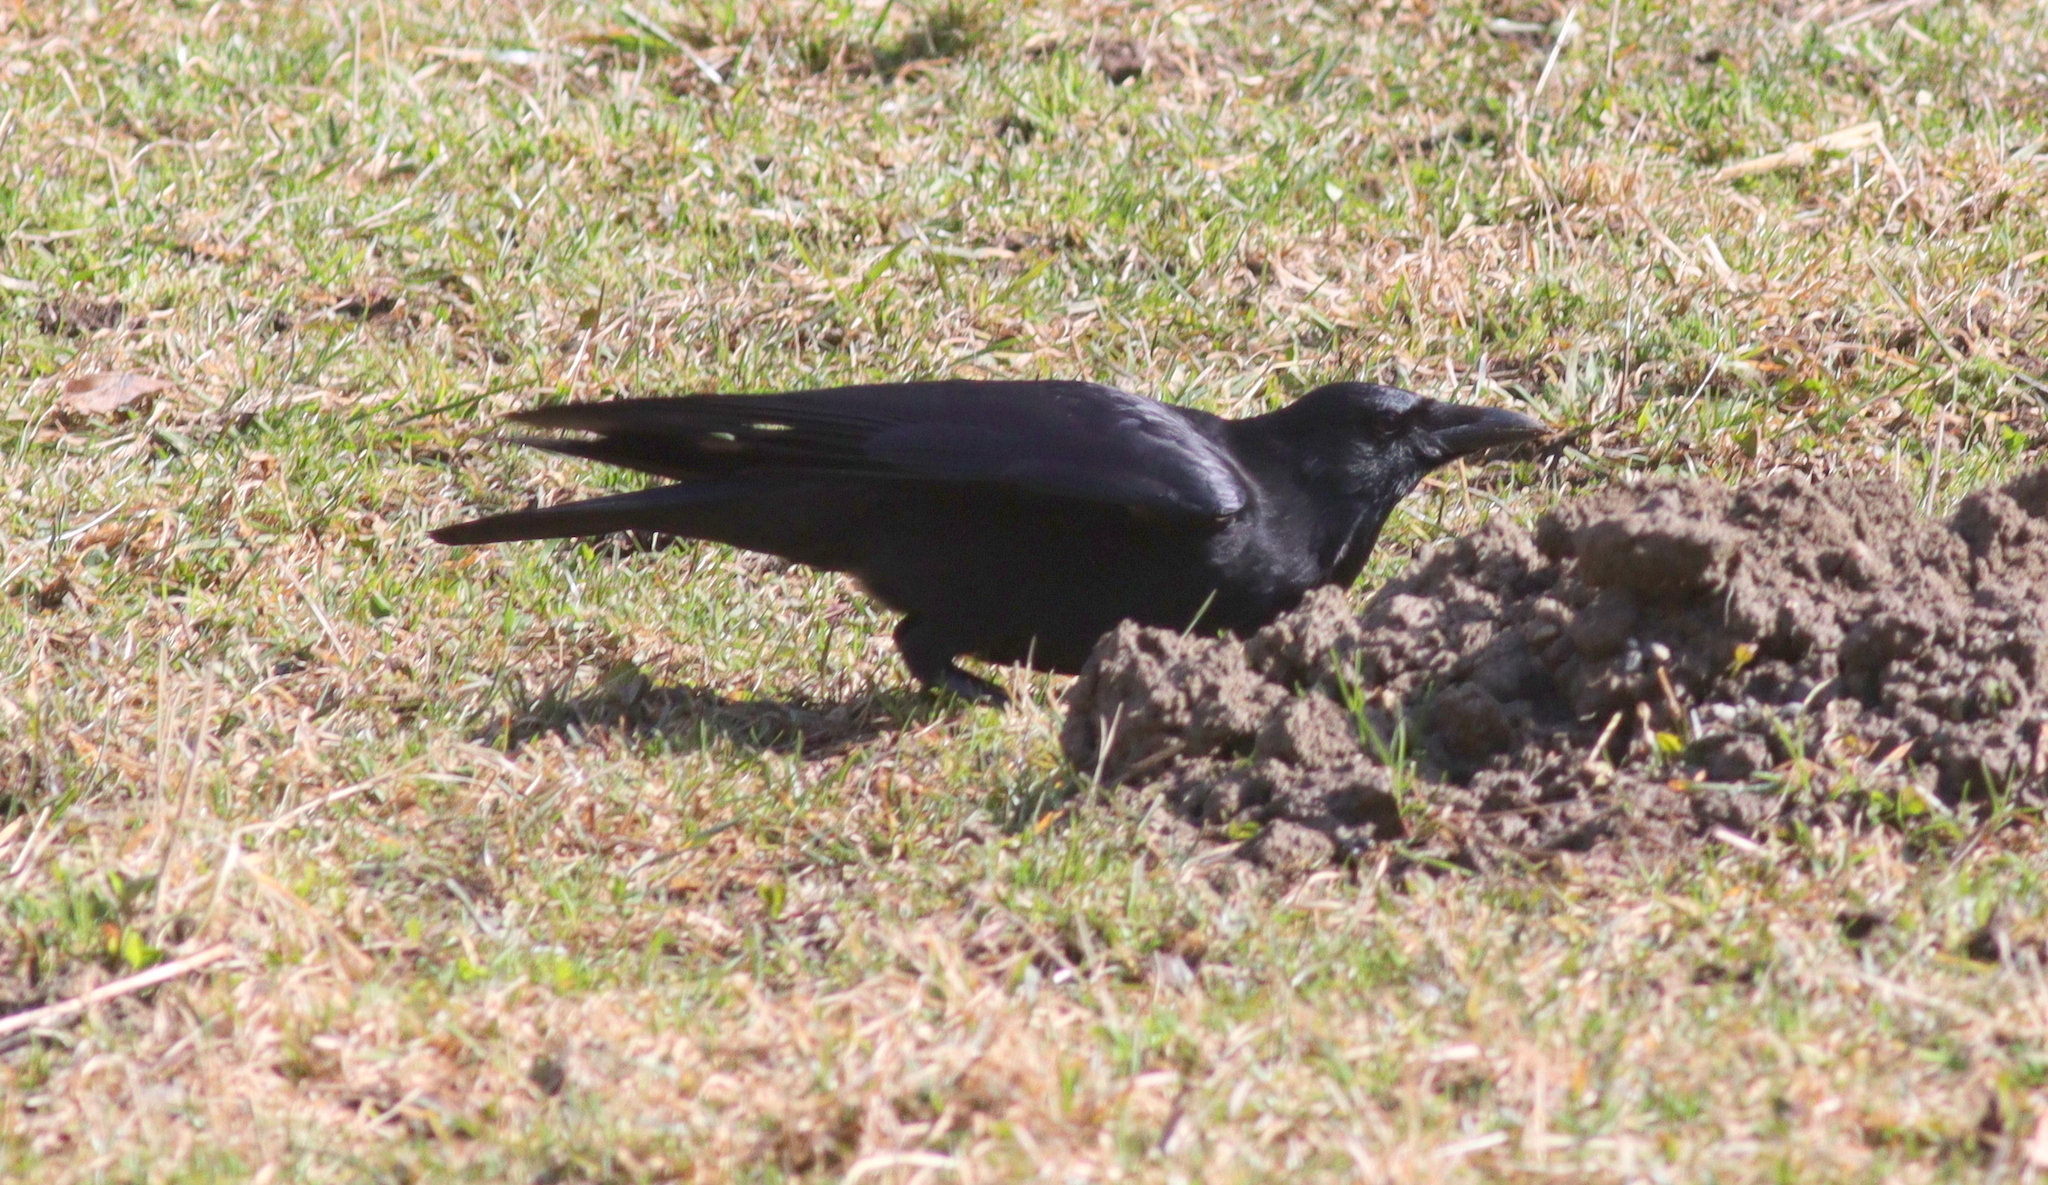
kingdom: Animalia
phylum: Chordata
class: Aves
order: Passeriformes
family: Corvidae
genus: Corvus
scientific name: Corvus corone
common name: Carrion crow
